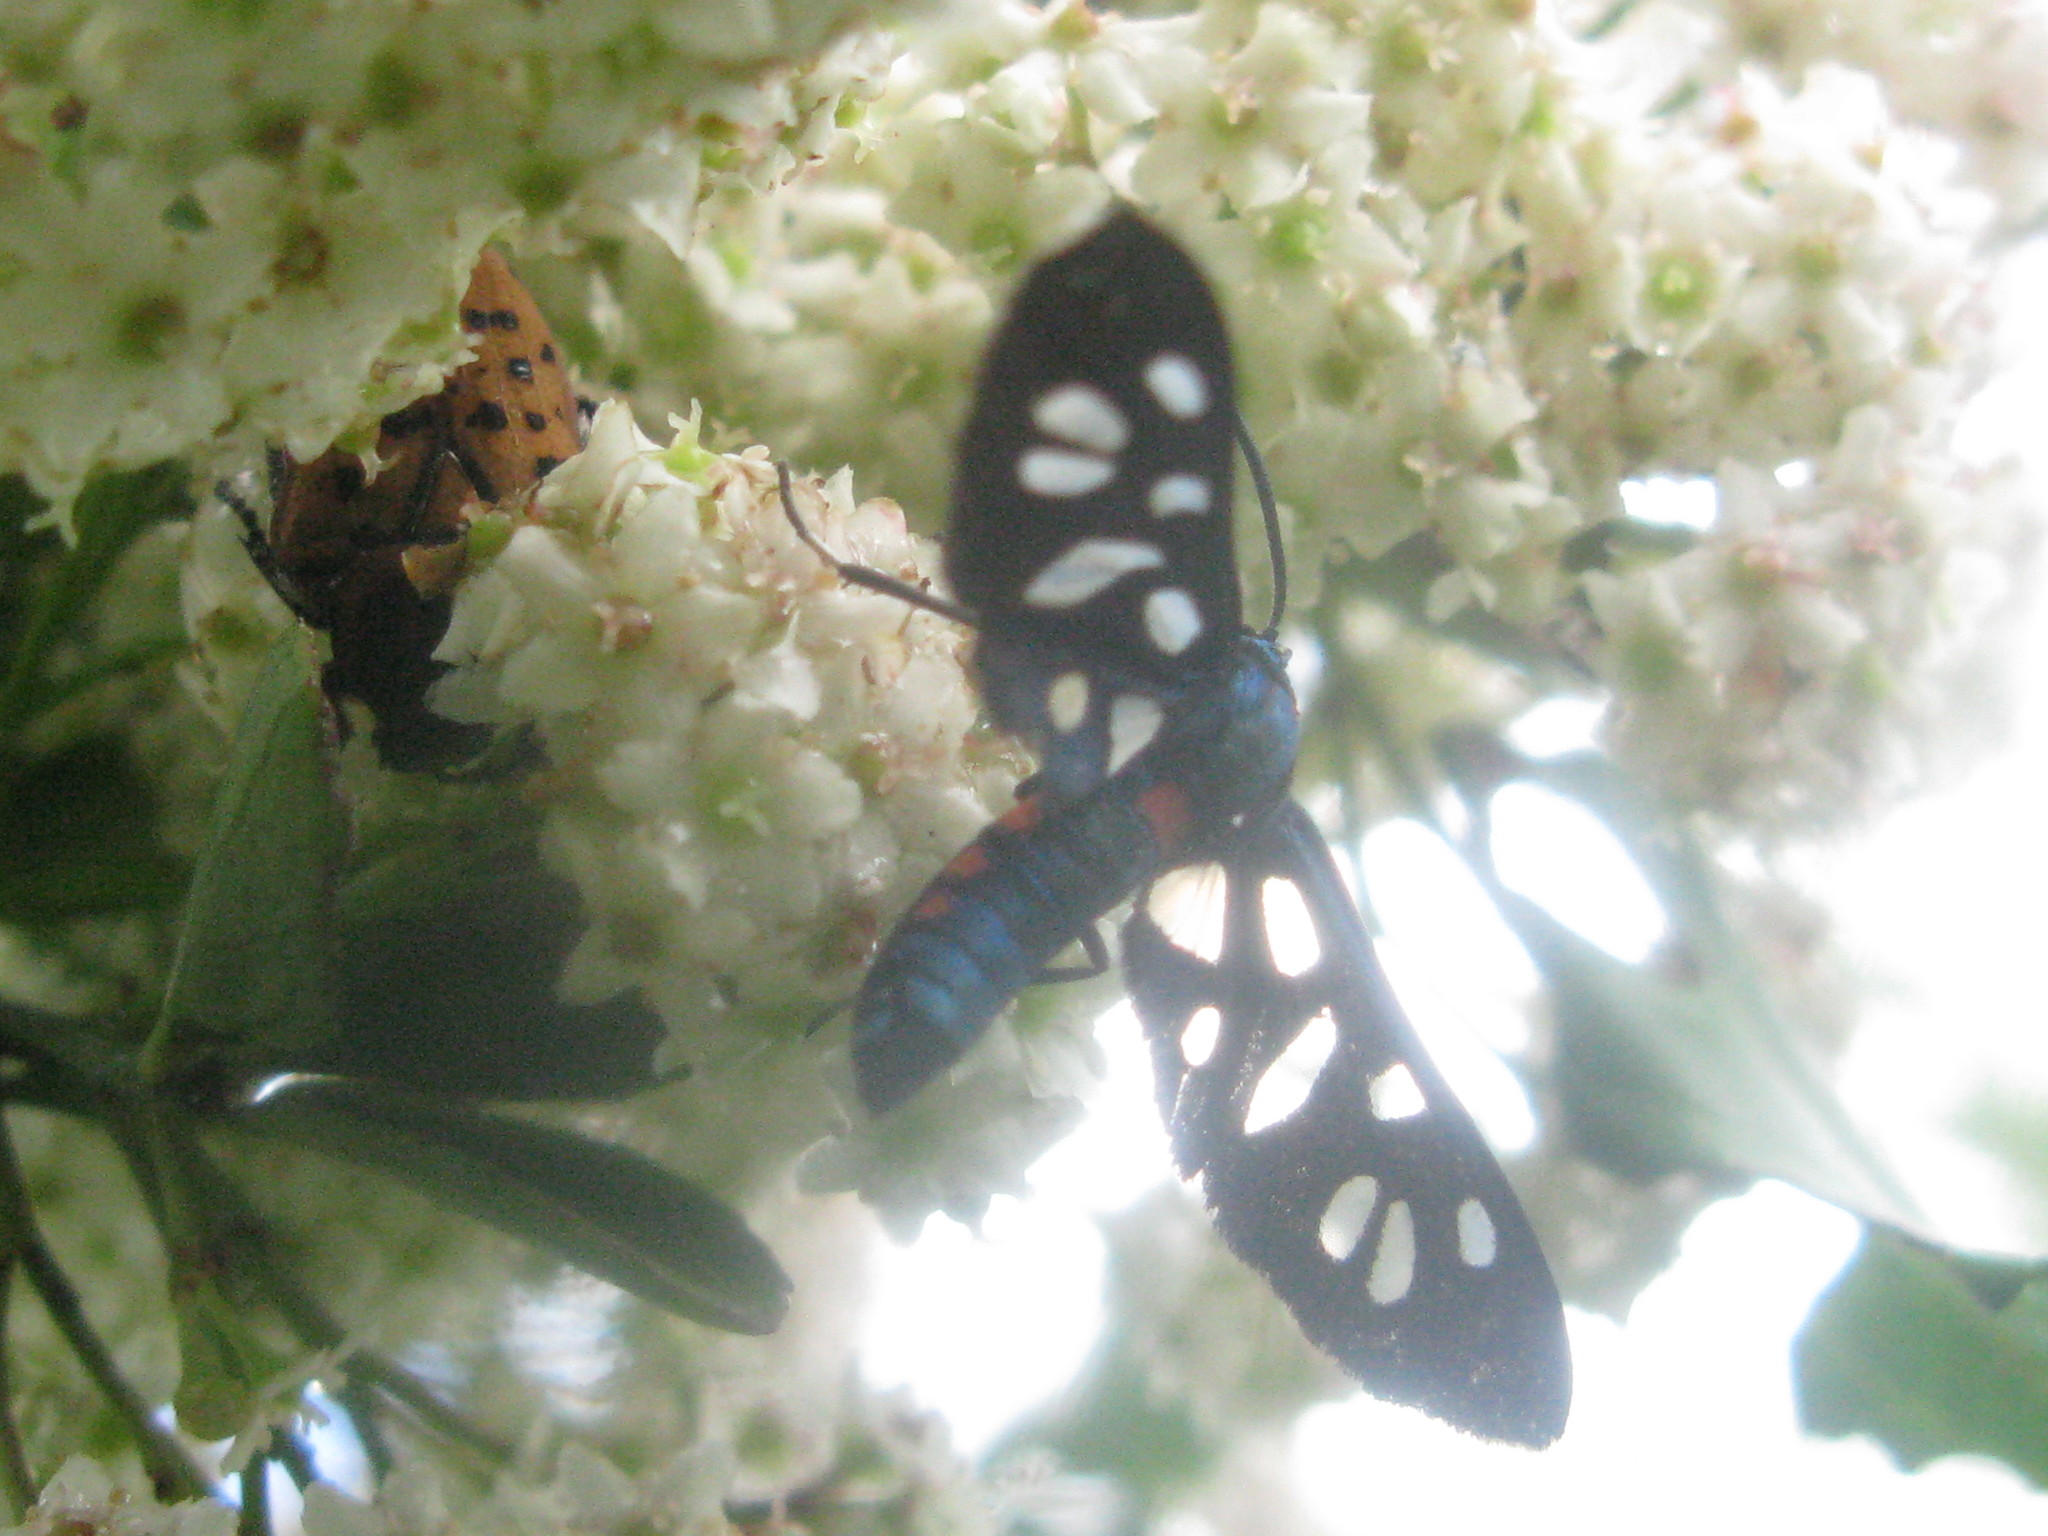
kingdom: Animalia
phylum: Arthropoda
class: Insecta
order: Lepidoptera
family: Erebidae
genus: Amata
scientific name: Amata kuhlweini
